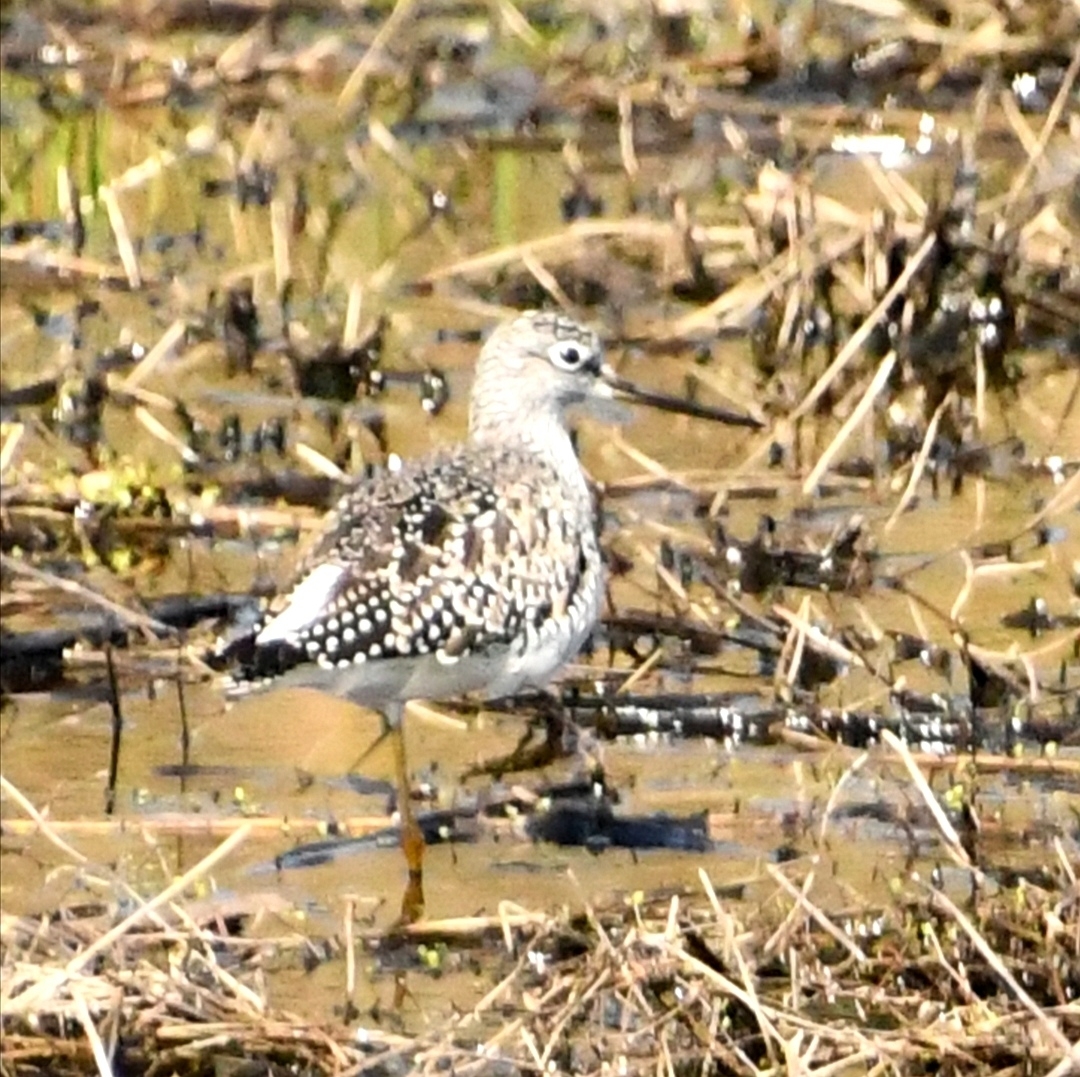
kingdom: Animalia
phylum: Chordata
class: Aves
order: Charadriiformes
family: Scolopacidae
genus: Tringa
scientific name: Tringa melanoleuca
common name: Greater yellowlegs
